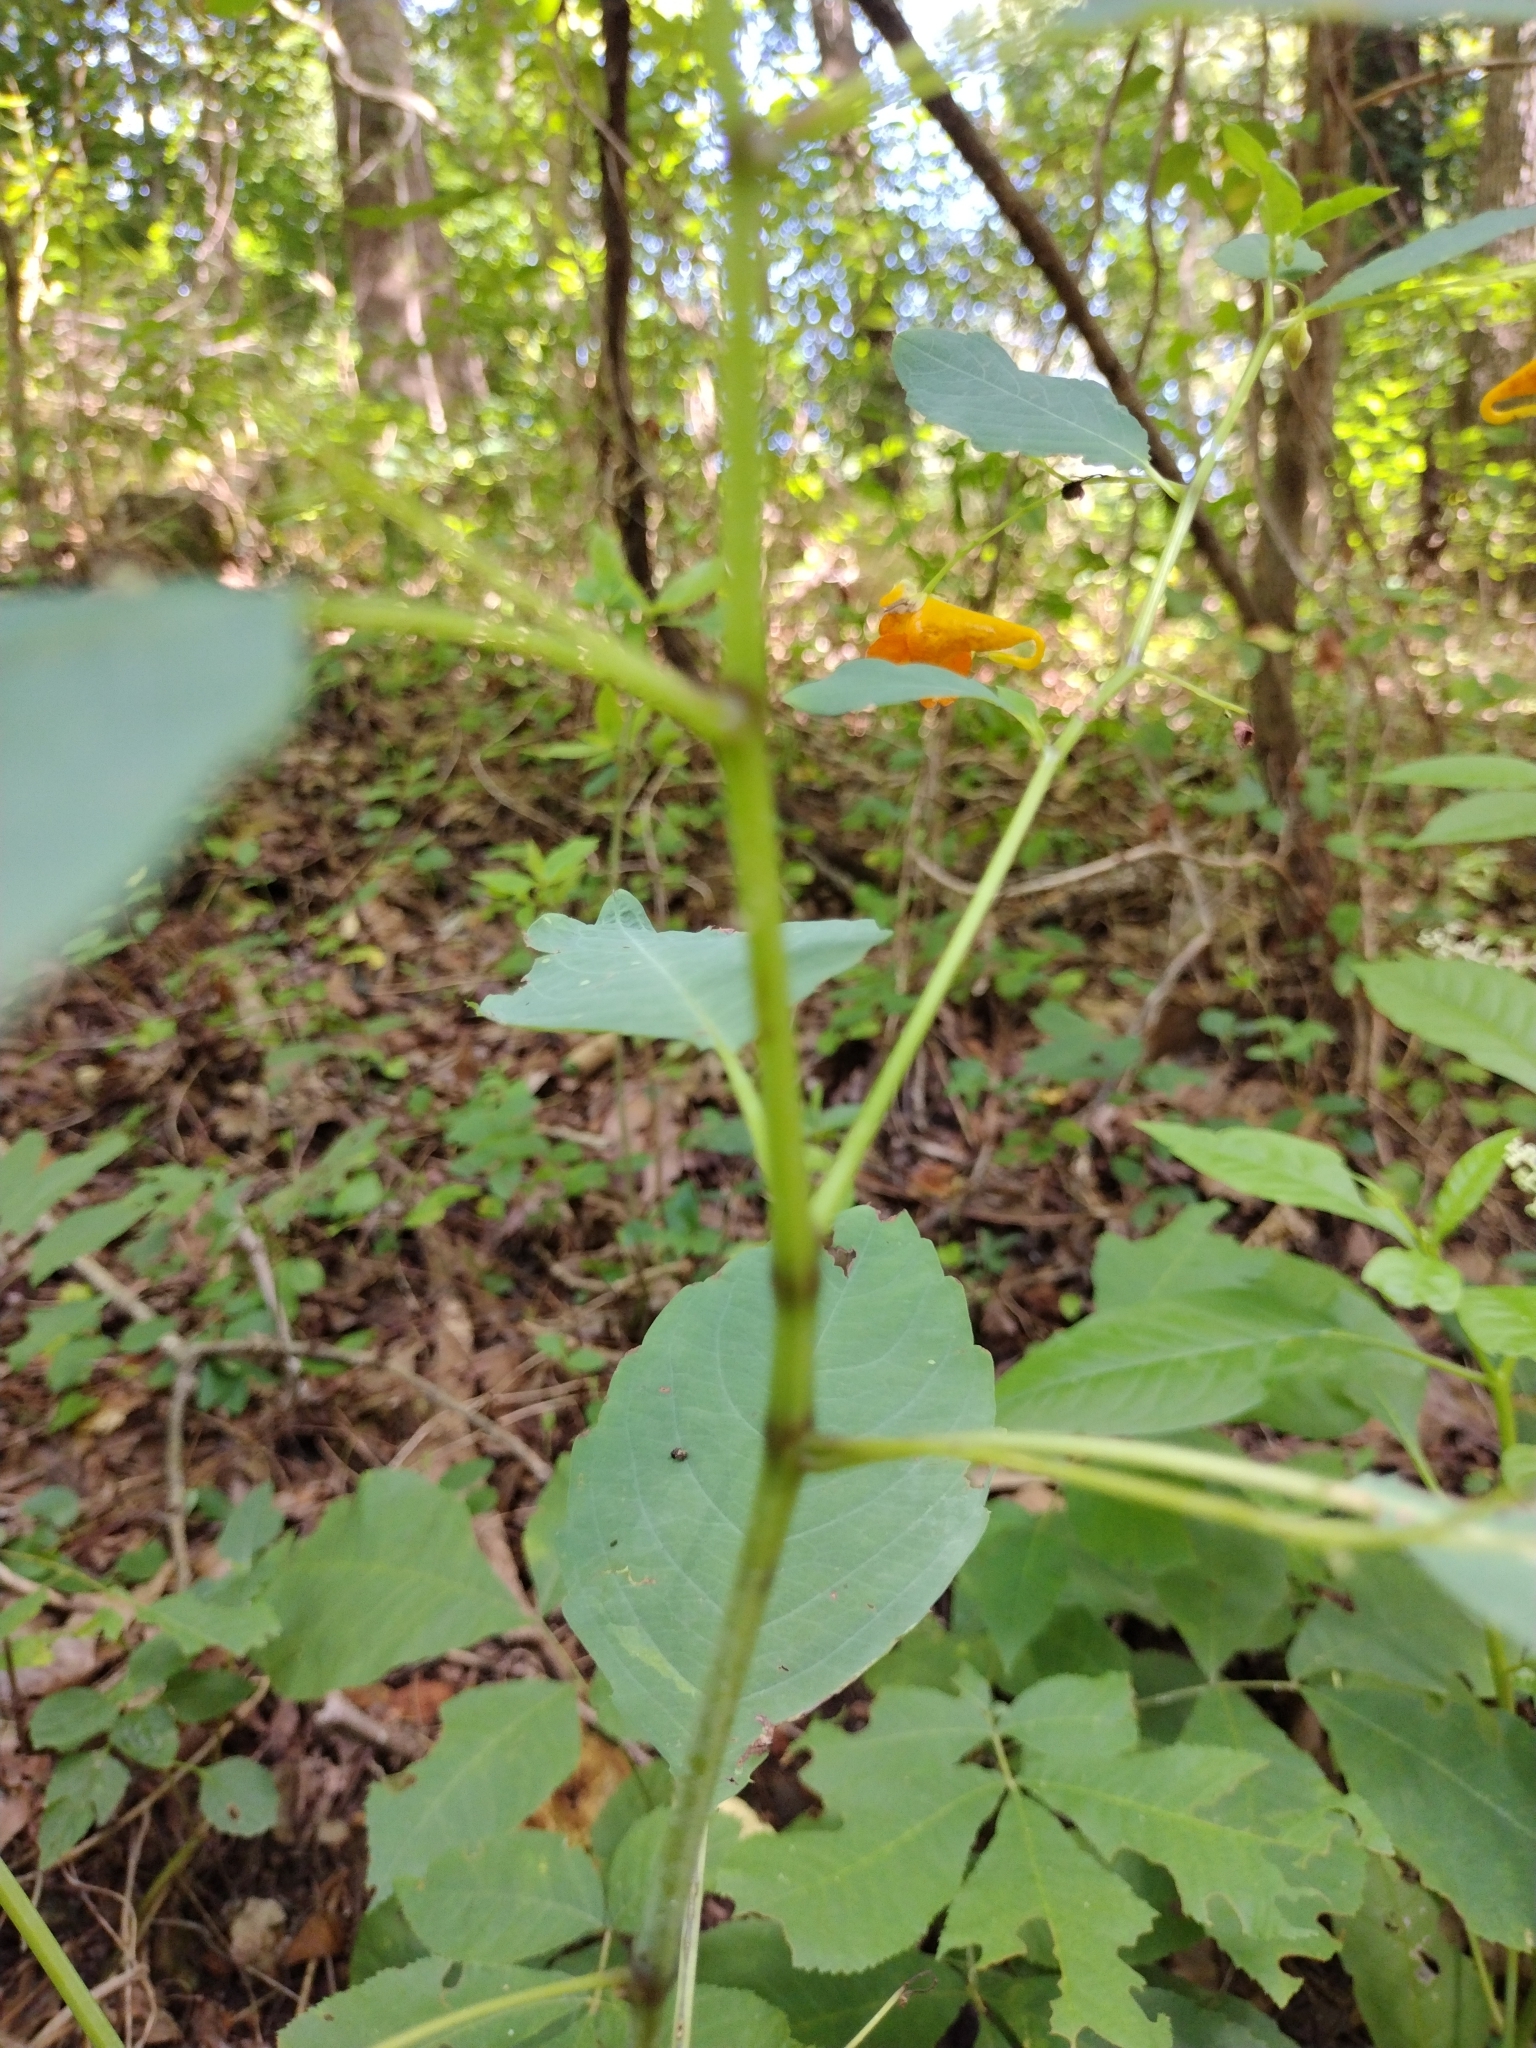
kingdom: Plantae
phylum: Tracheophyta
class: Magnoliopsida
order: Ericales
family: Balsaminaceae
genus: Impatiens
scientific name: Impatiens capensis
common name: Orange balsam
